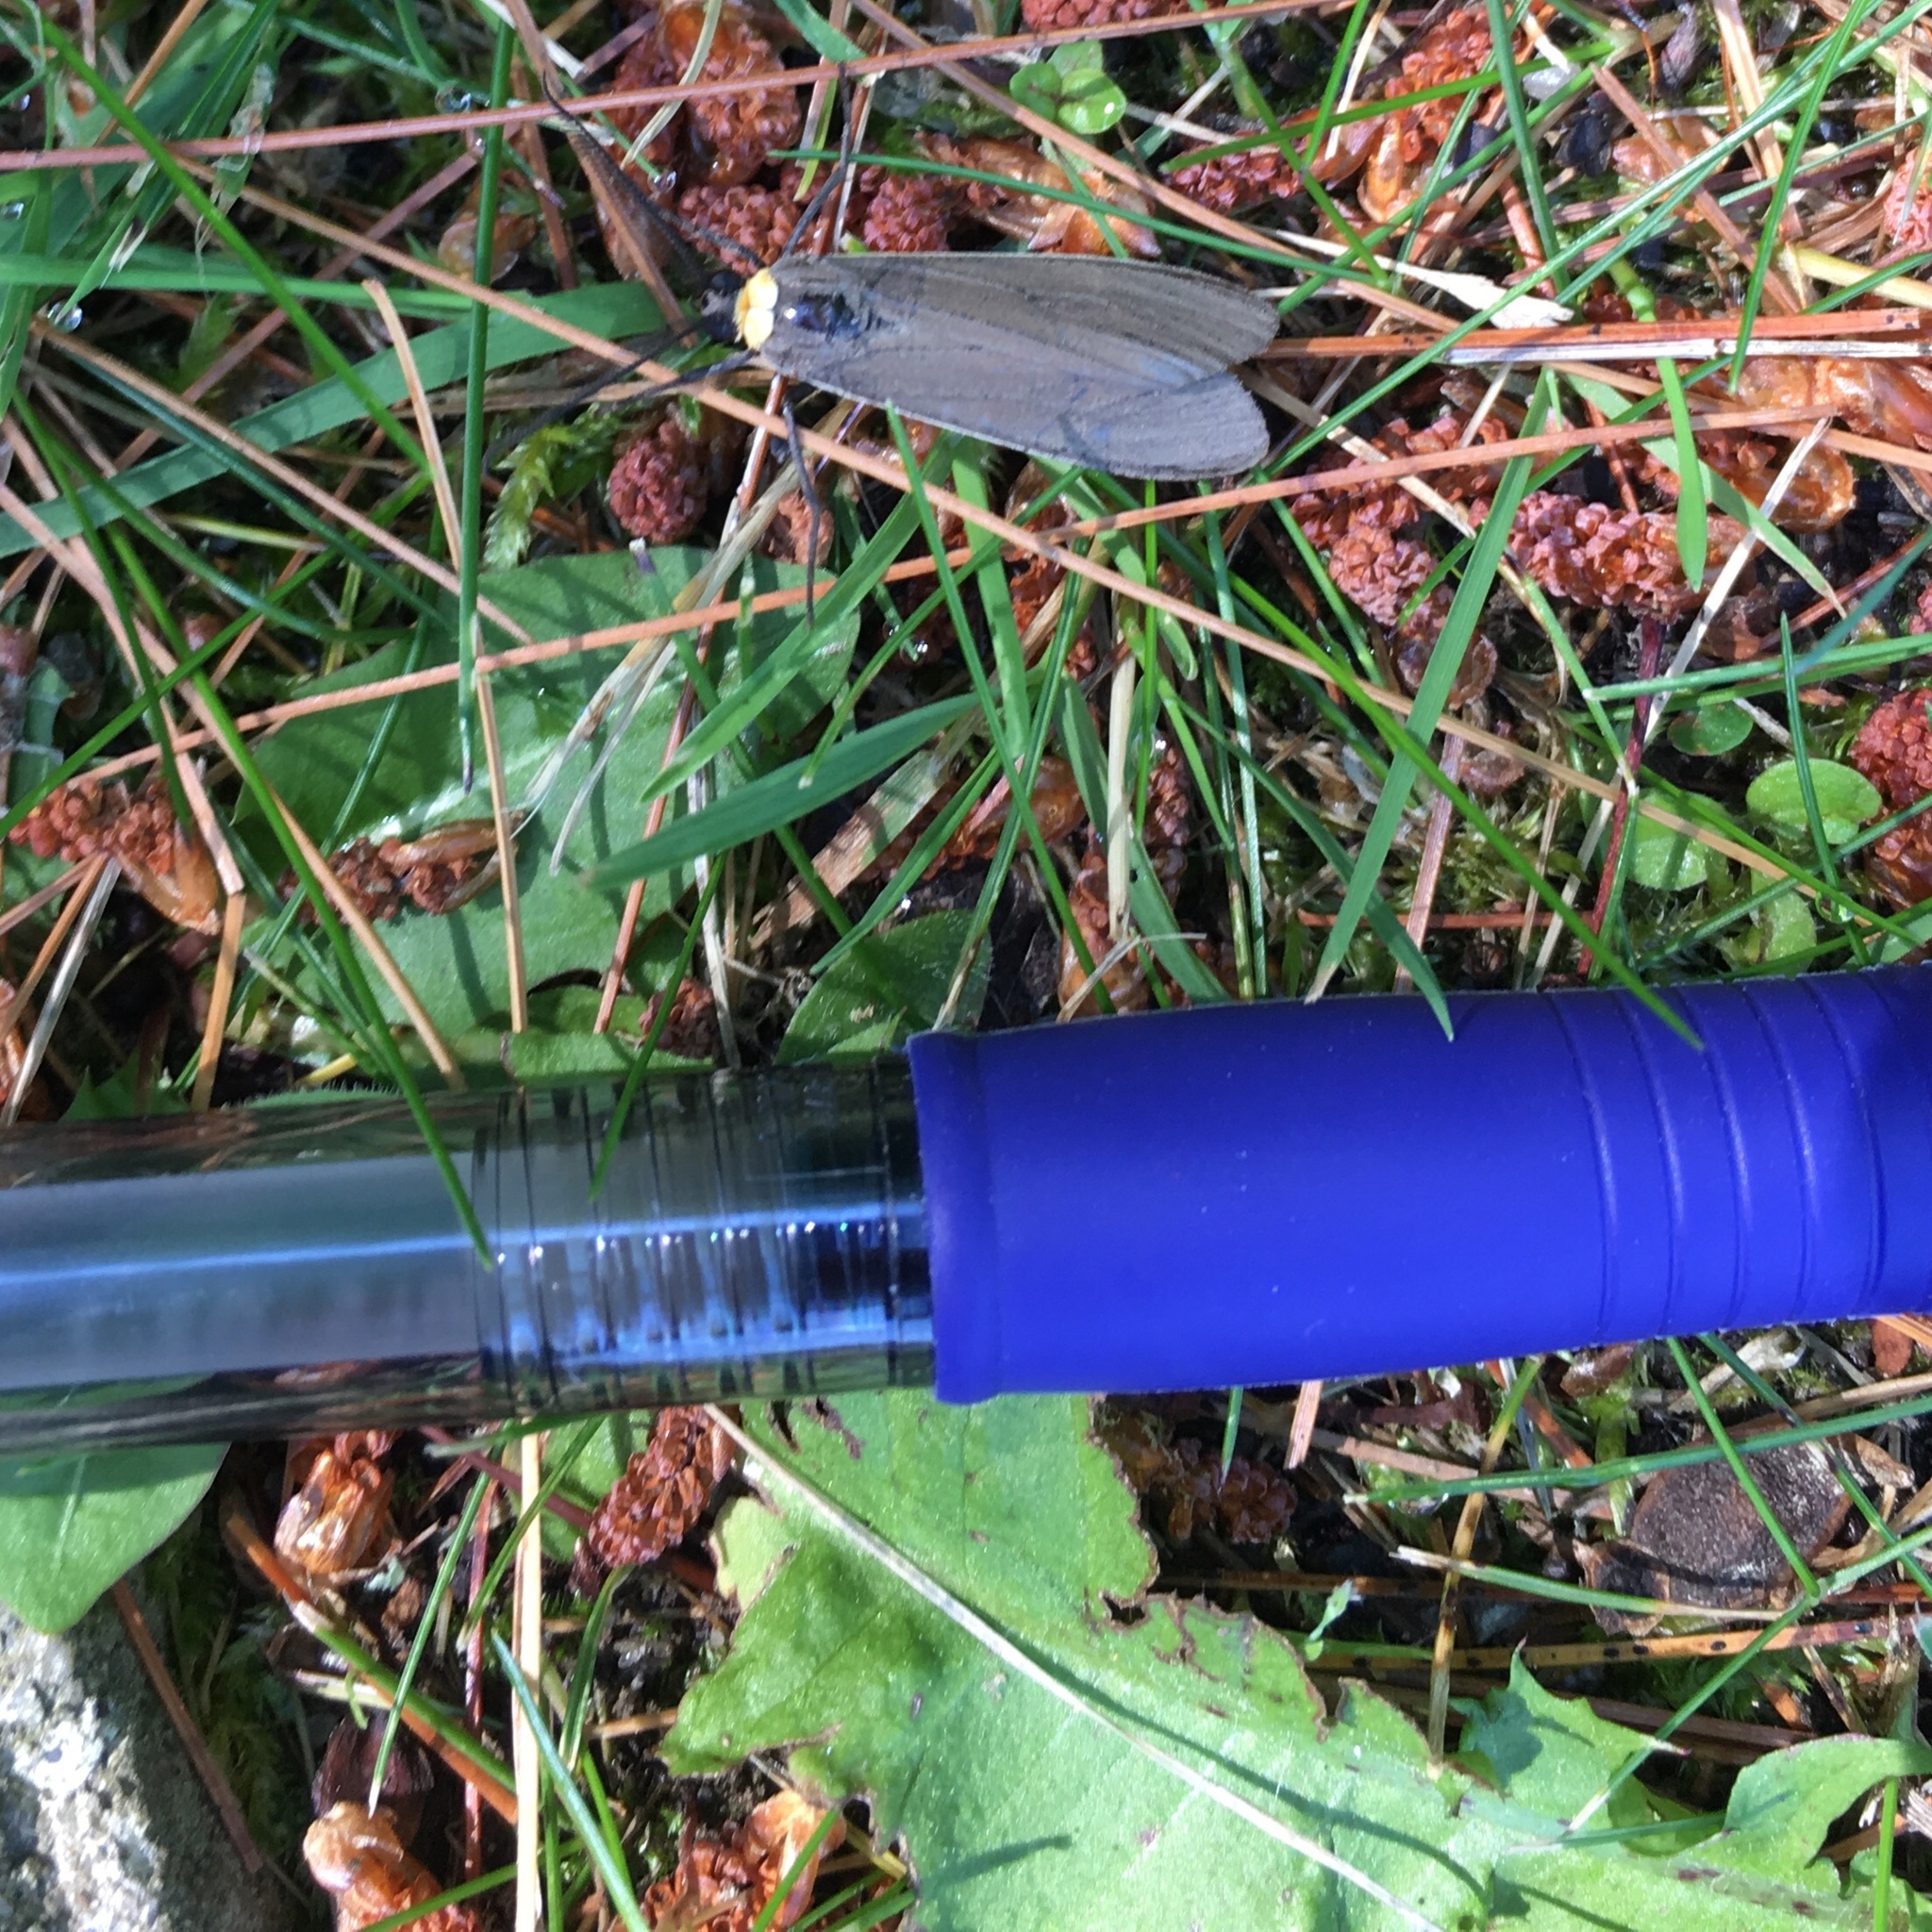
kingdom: Animalia
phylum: Arthropoda
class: Insecta
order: Lepidoptera
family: Erebidae
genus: Cisseps
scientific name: Cisseps fulvicollis
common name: Yellow-collared scape moth
